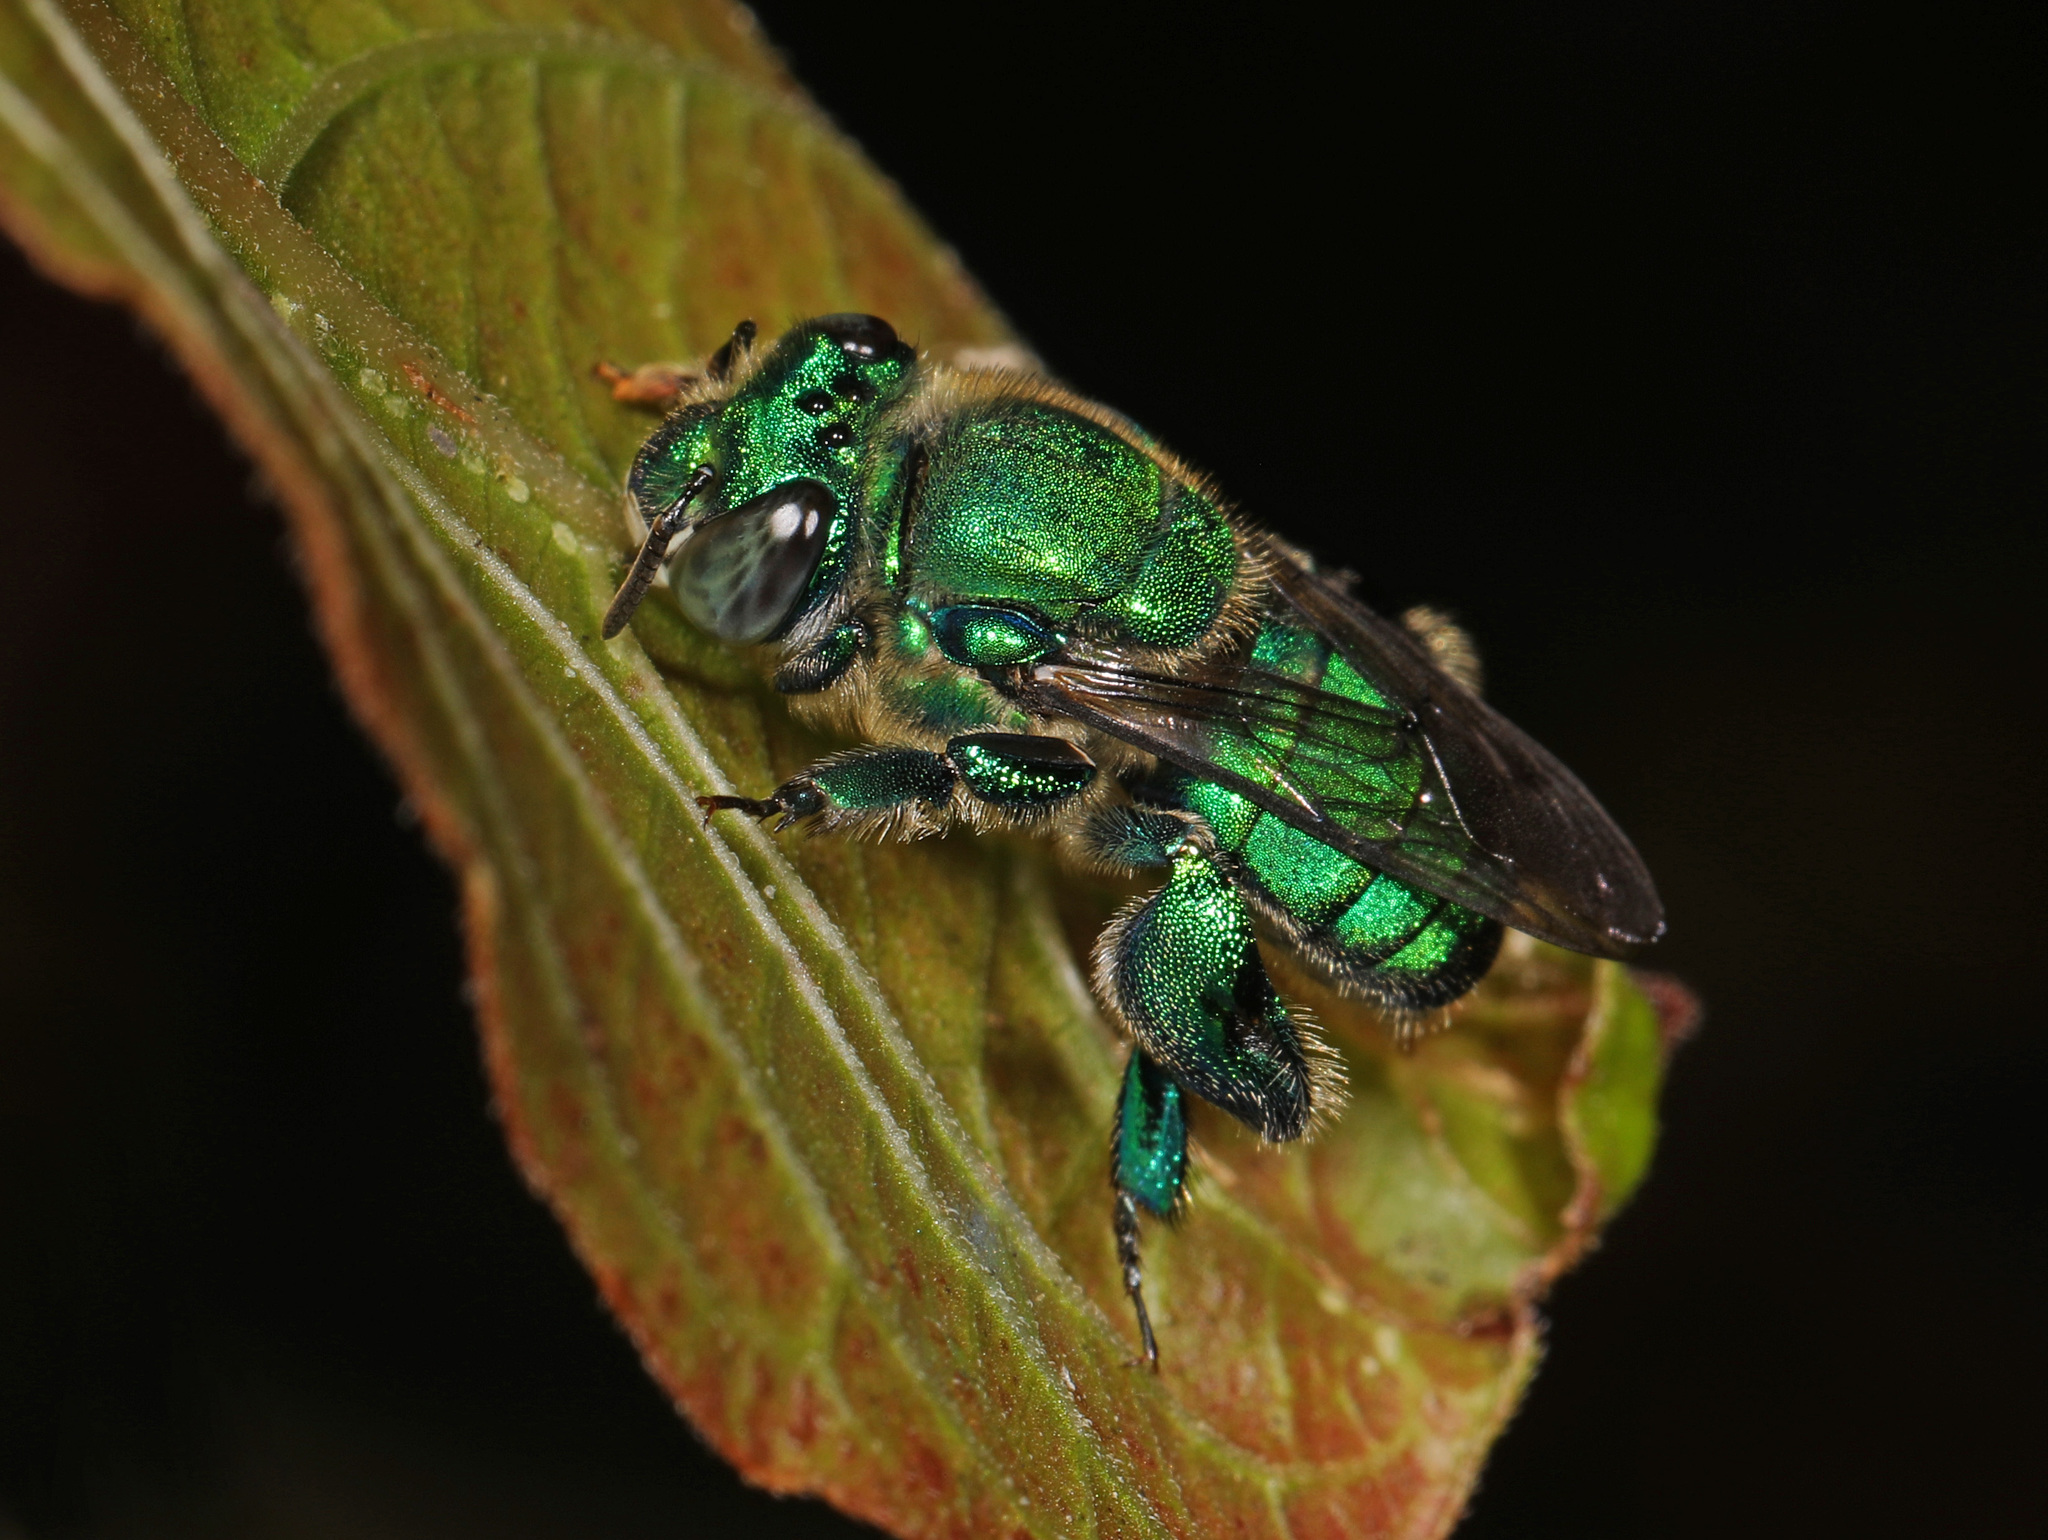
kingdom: Animalia
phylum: Arthropoda
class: Insecta
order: Hymenoptera
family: Apidae
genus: Euglossa
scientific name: Euglossa dilemma
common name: Green orchid bee
